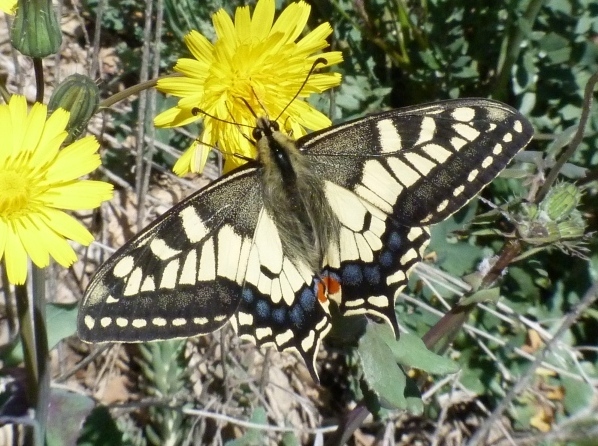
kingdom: Animalia
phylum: Arthropoda
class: Insecta
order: Lepidoptera
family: Papilionidae
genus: Papilio
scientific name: Papilio machaon
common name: Swallowtail
